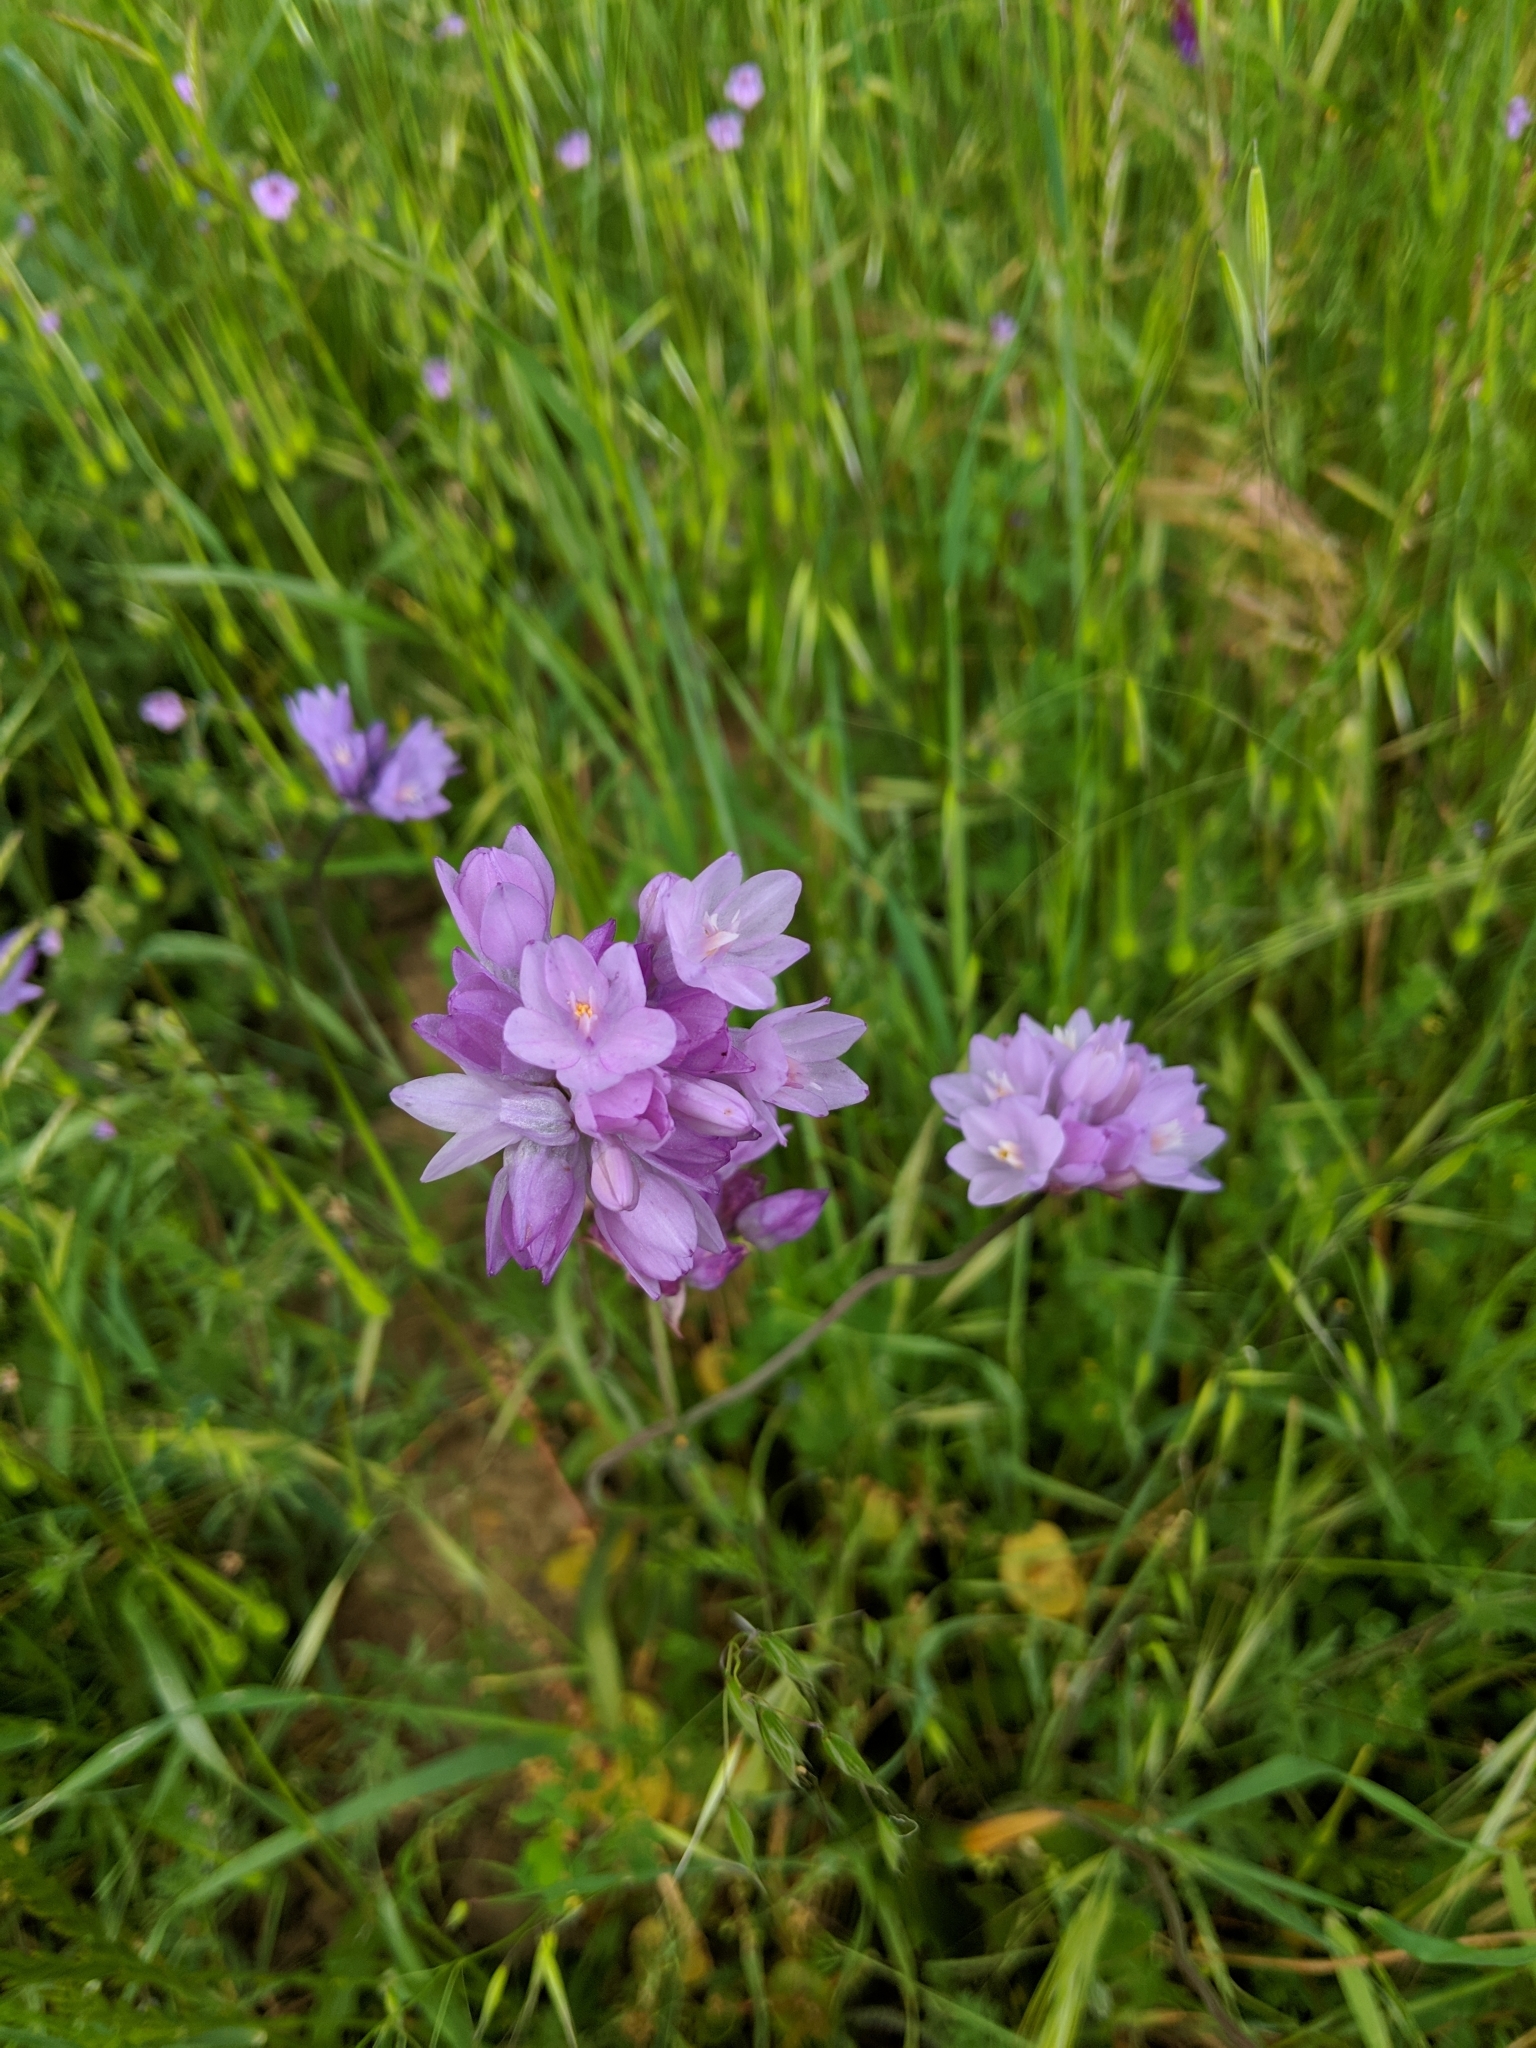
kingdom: Plantae
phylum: Tracheophyta
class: Liliopsida
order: Asparagales
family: Asparagaceae
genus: Dipterostemon
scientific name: Dipterostemon capitatus
